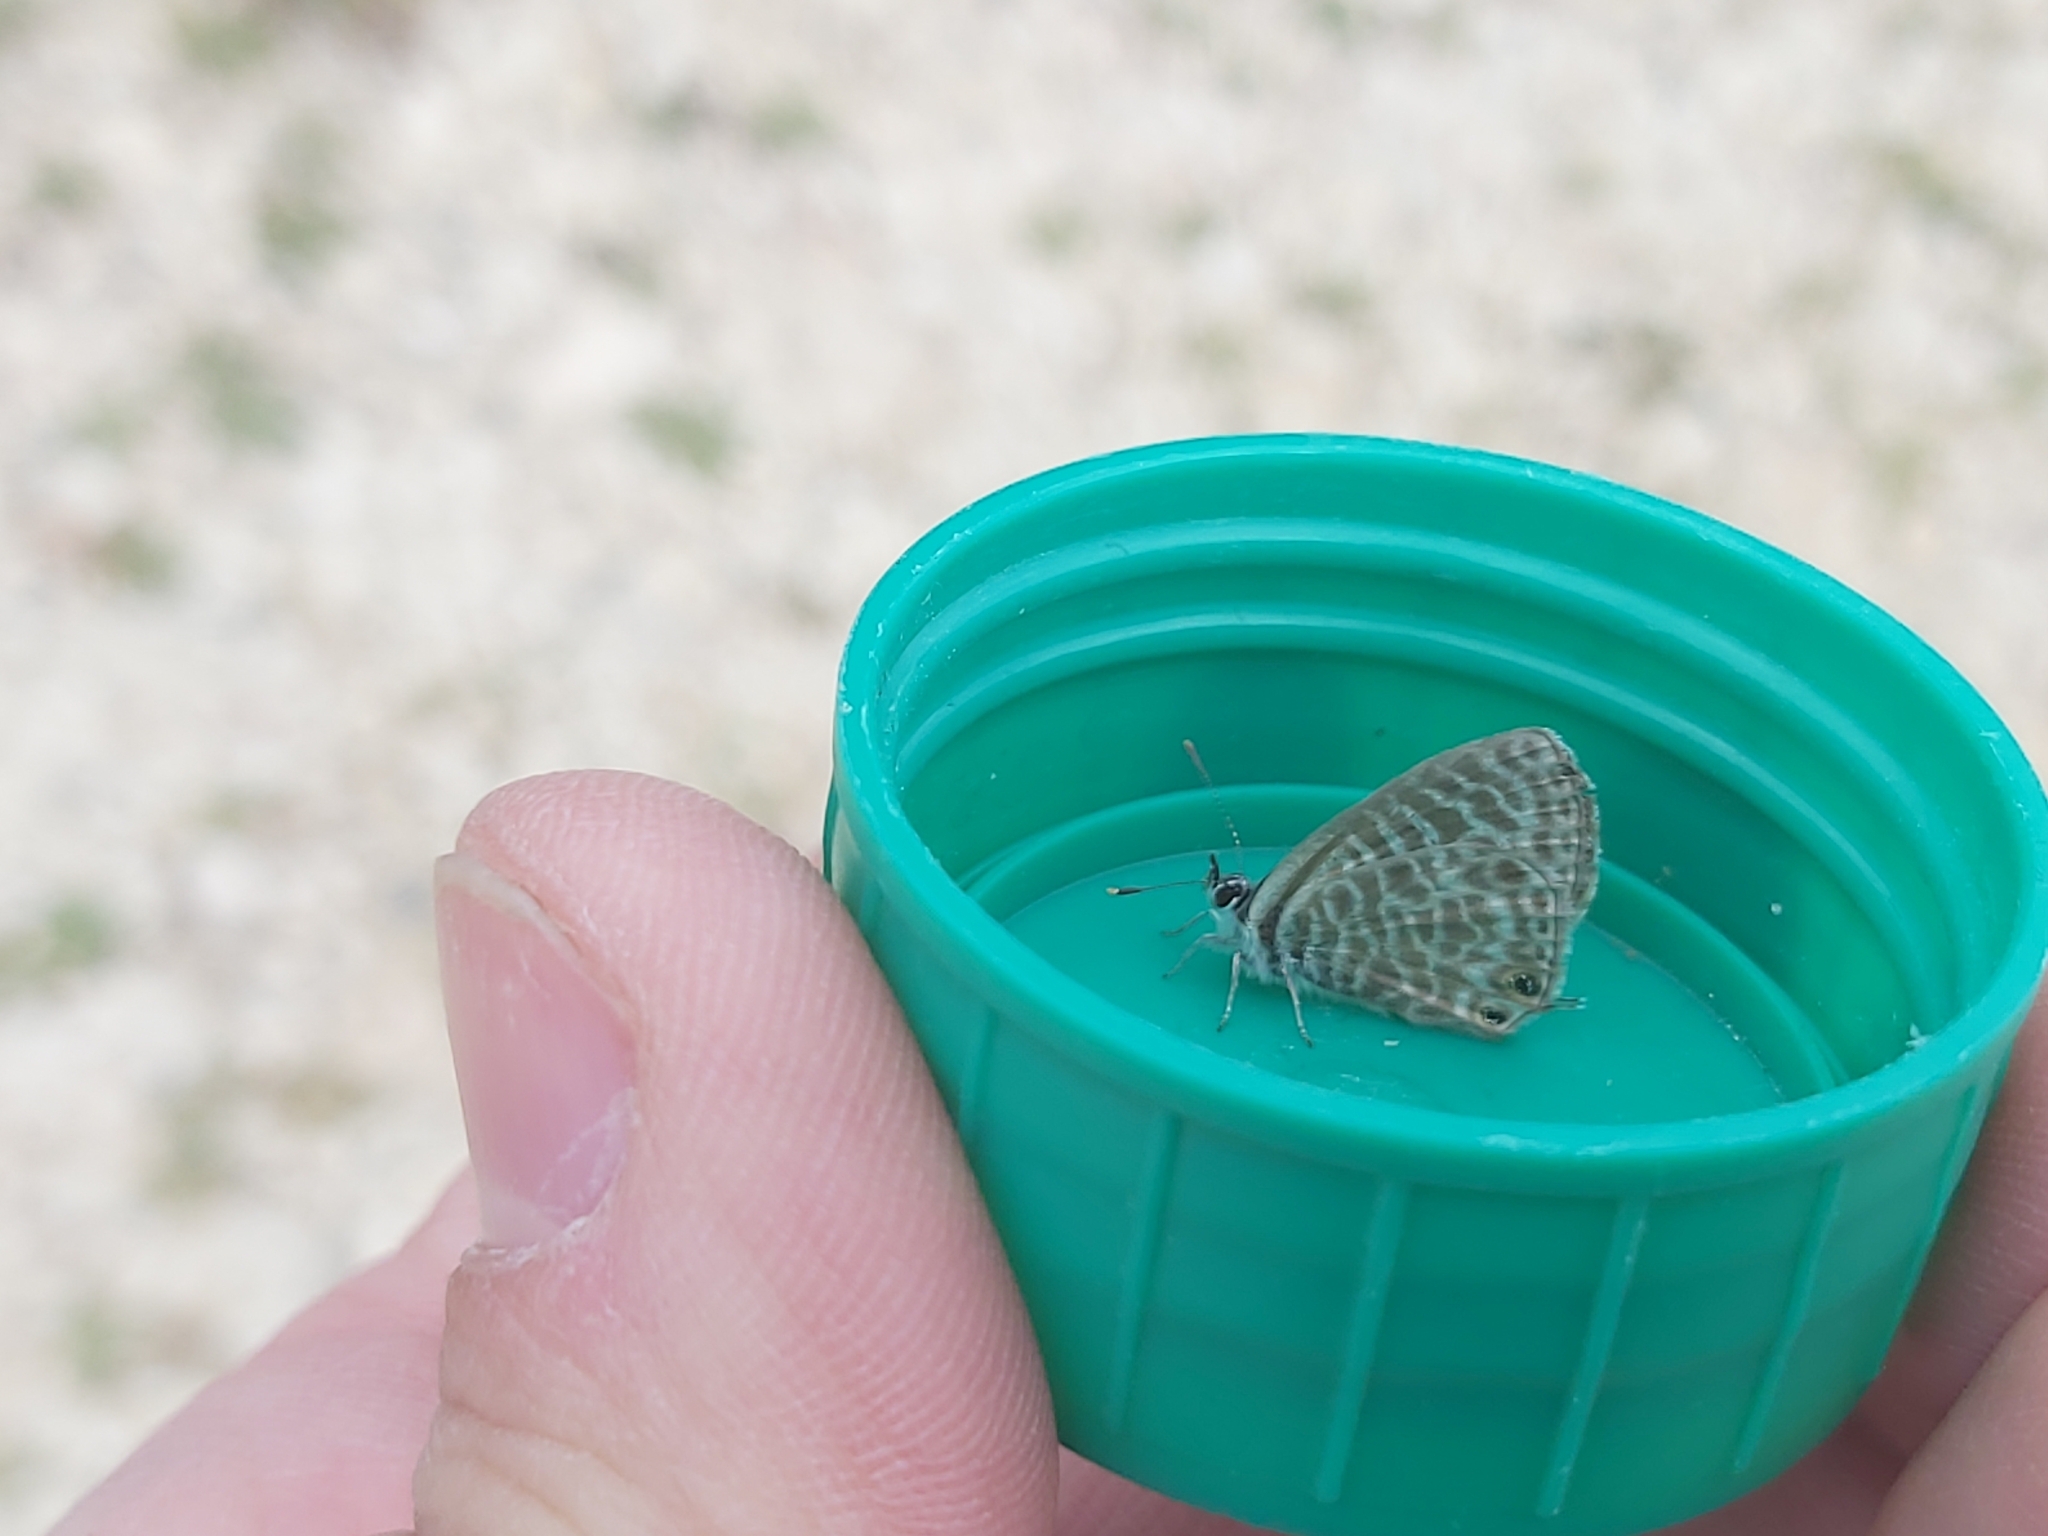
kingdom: Animalia
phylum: Arthropoda
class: Insecta
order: Lepidoptera
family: Lycaenidae
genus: Leptotes
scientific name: Leptotes pirithous
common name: Lang's short-tailed blue
